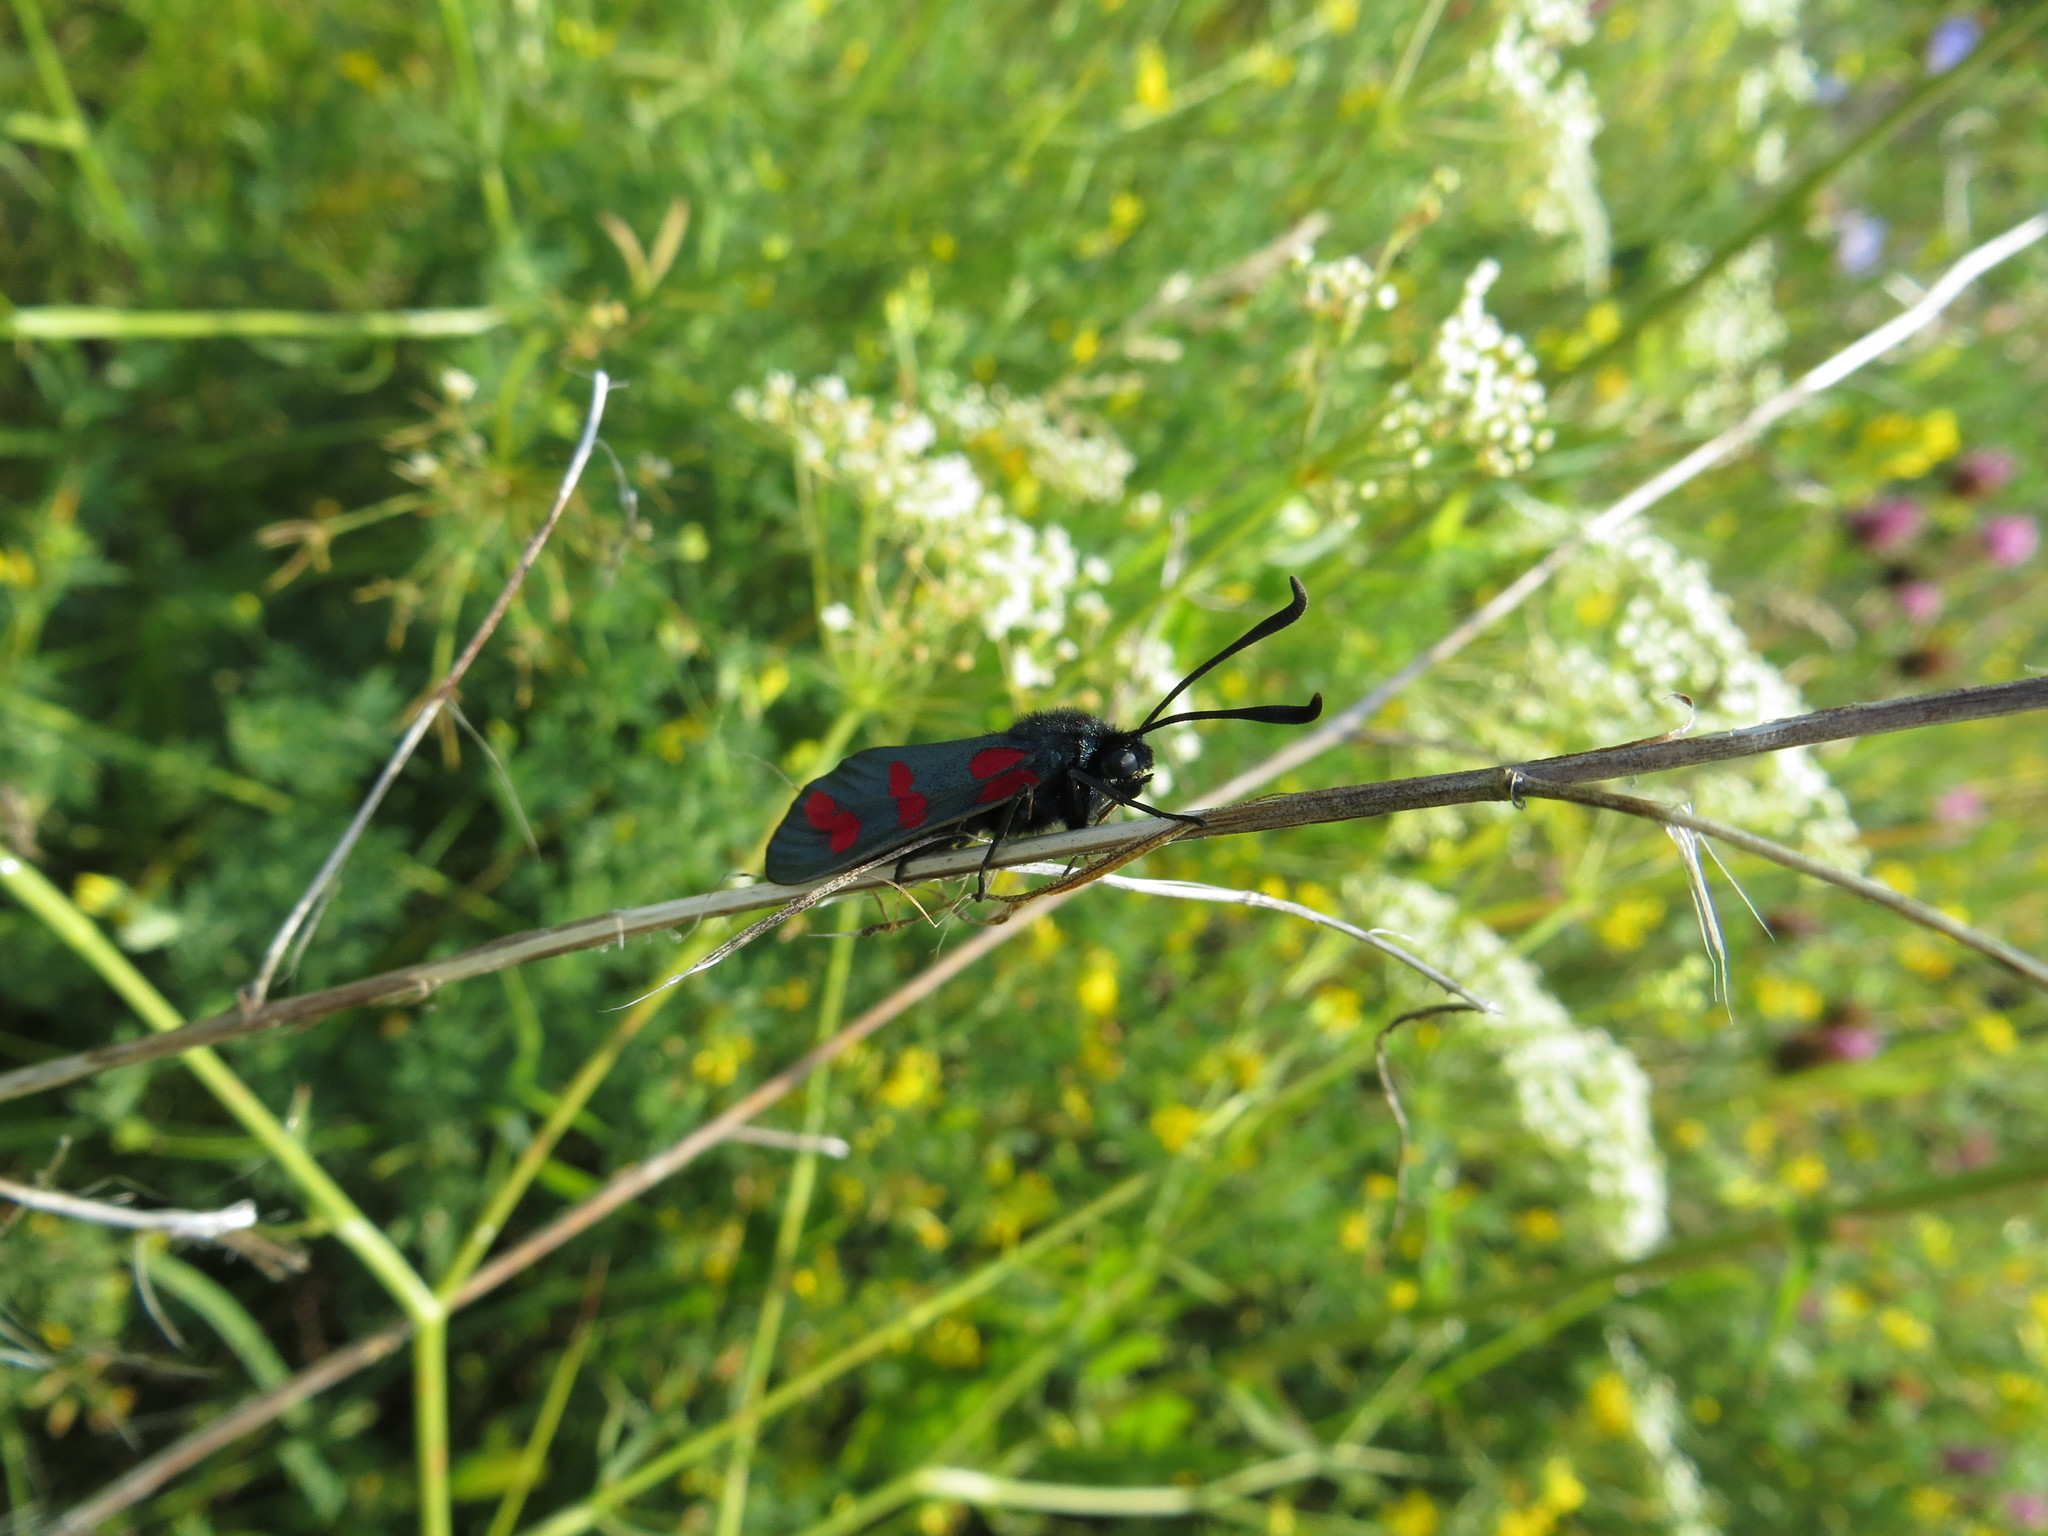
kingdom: Animalia
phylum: Arthropoda
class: Insecta
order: Lepidoptera
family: Zygaenidae
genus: Zygaena
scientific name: Zygaena filipendulae
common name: Six-spot burnet
